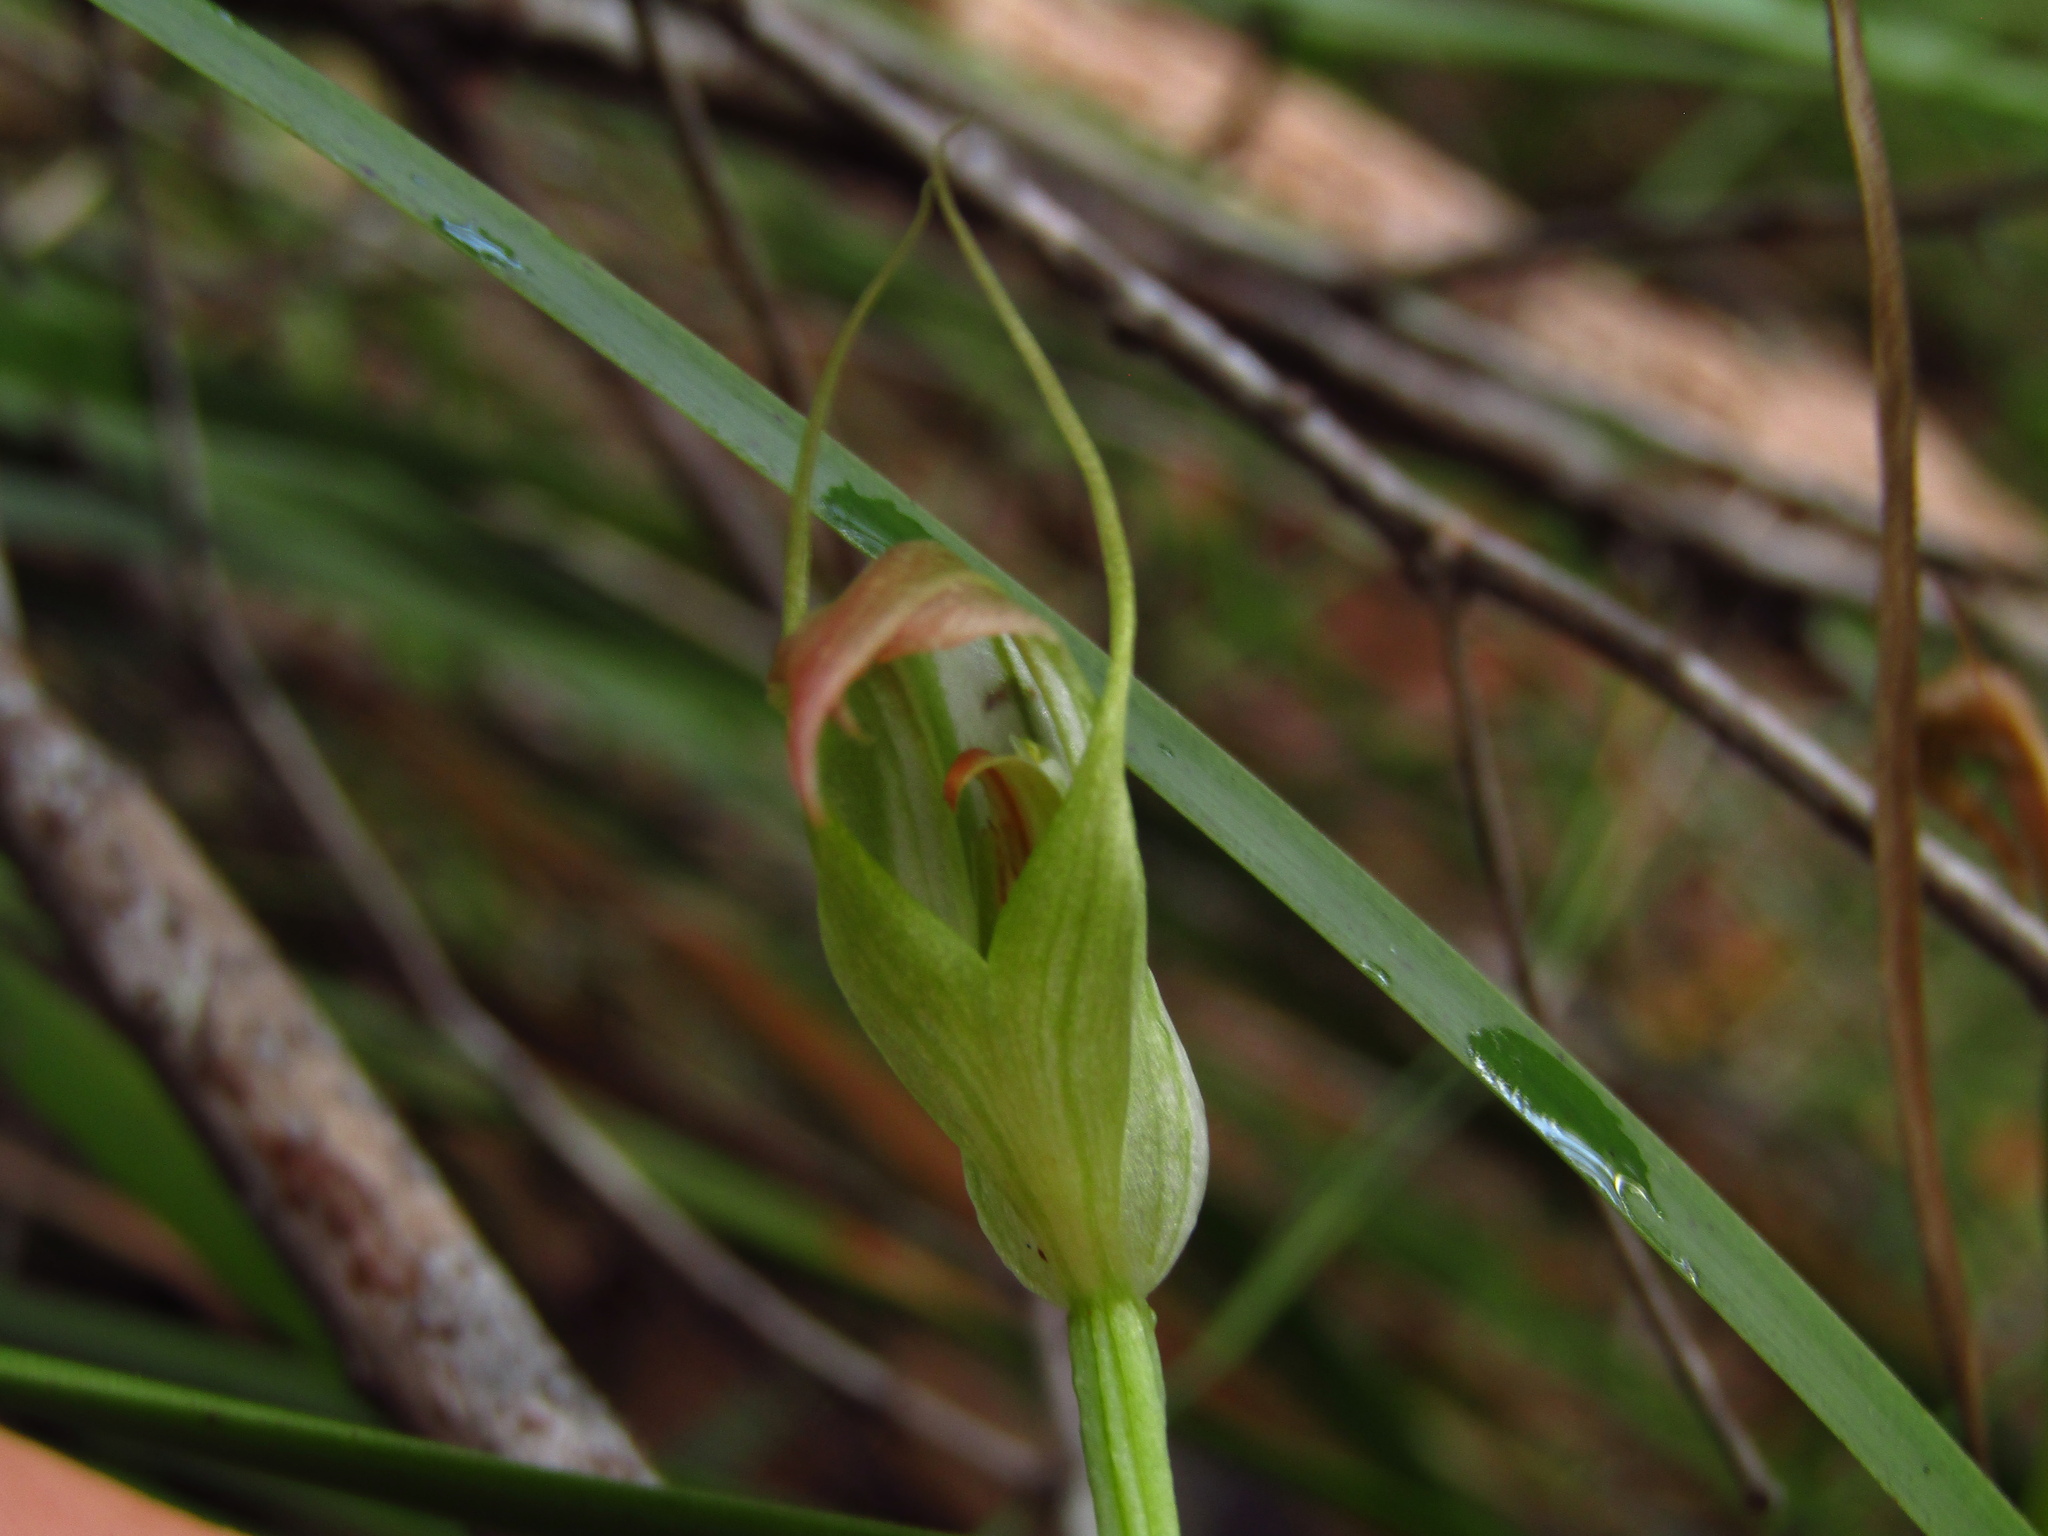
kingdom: Plantae
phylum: Tracheophyta
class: Liliopsida
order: Asparagales
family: Orchidaceae
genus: Pterostylis
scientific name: Pterostylis acuminata
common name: Pointed greenhood
